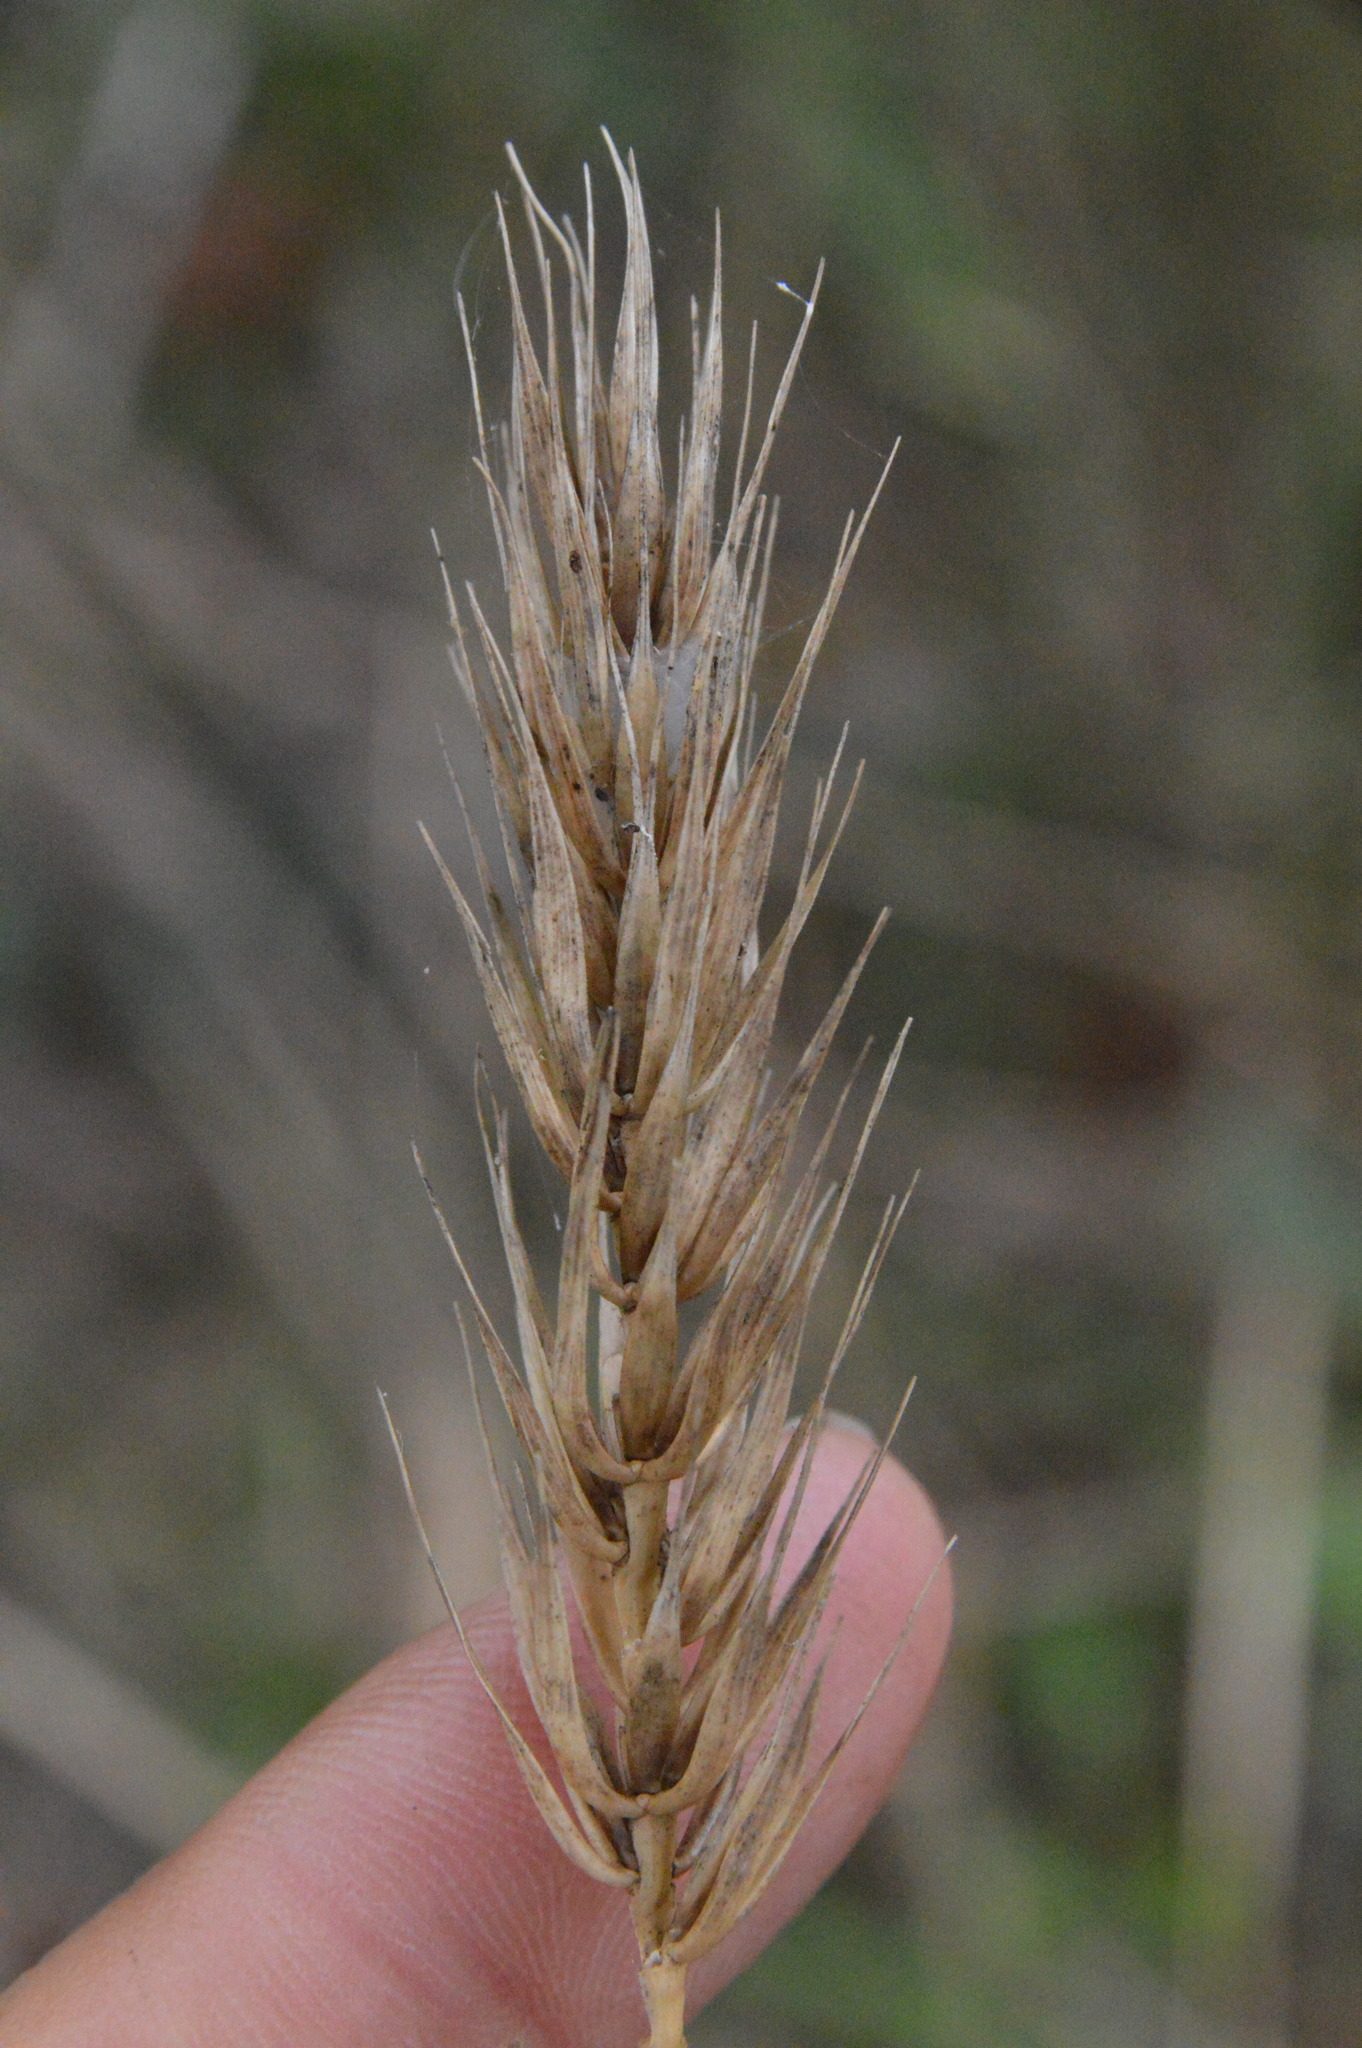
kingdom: Plantae
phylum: Tracheophyta
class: Liliopsida
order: Poales
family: Poaceae
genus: Elymus
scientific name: Elymus virginicus
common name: Common eastern wildrye
